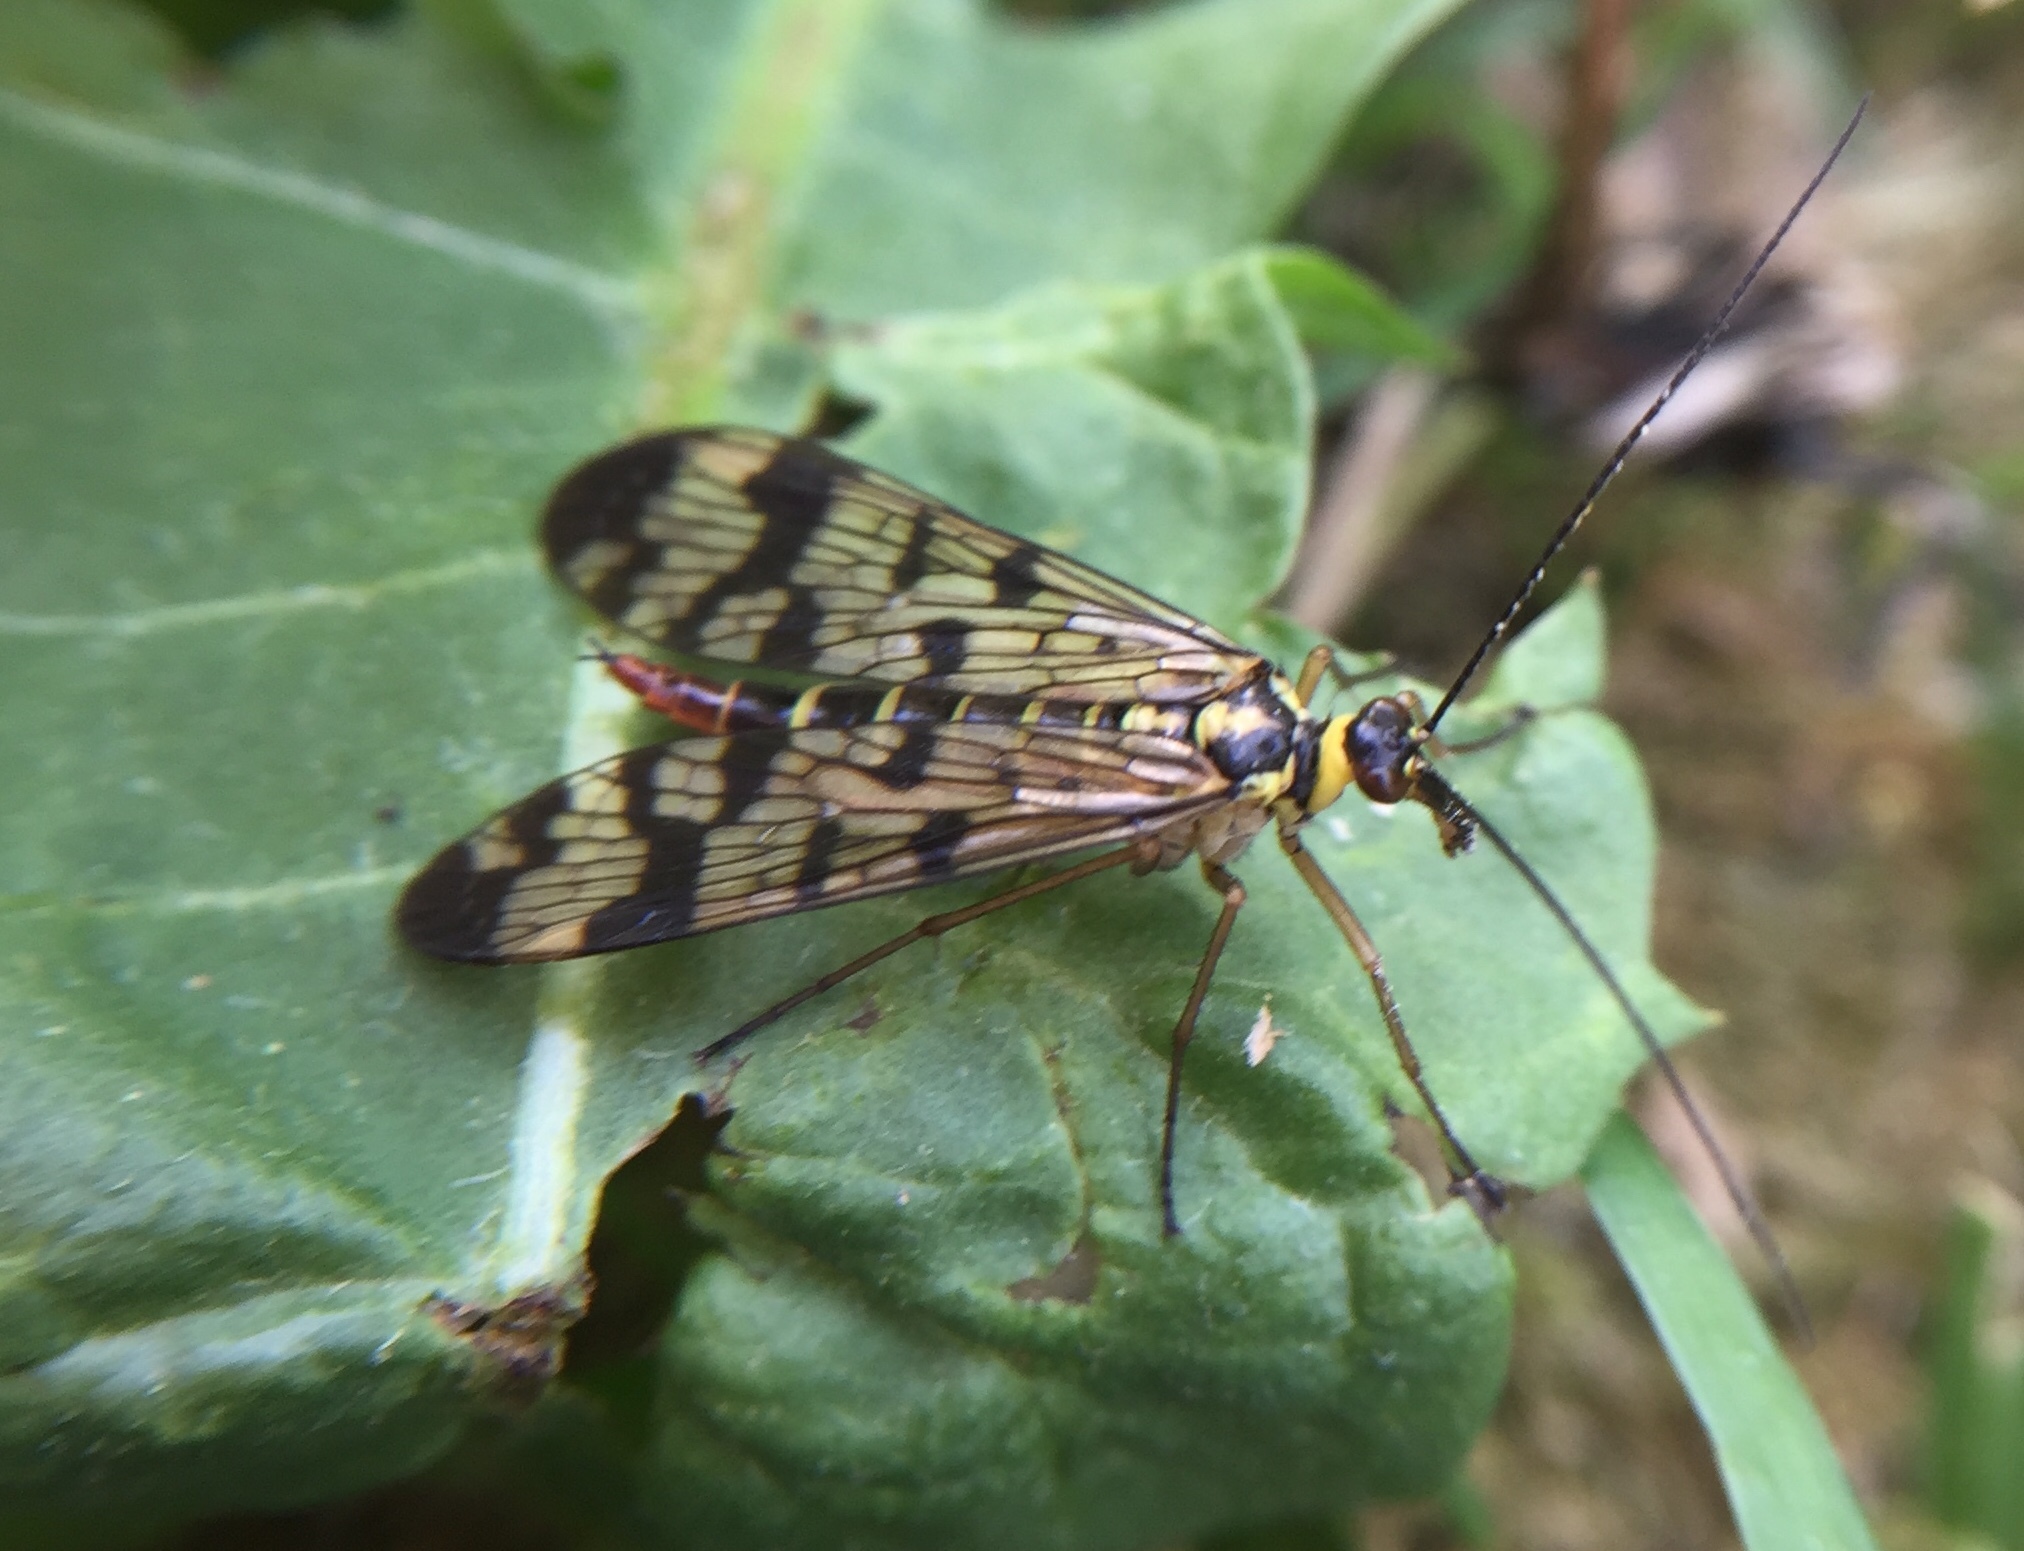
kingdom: Animalia
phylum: Arthropoda
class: Insecta
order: Mecoptera
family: Panorpidae
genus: Panorpa
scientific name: Panorpa communis
